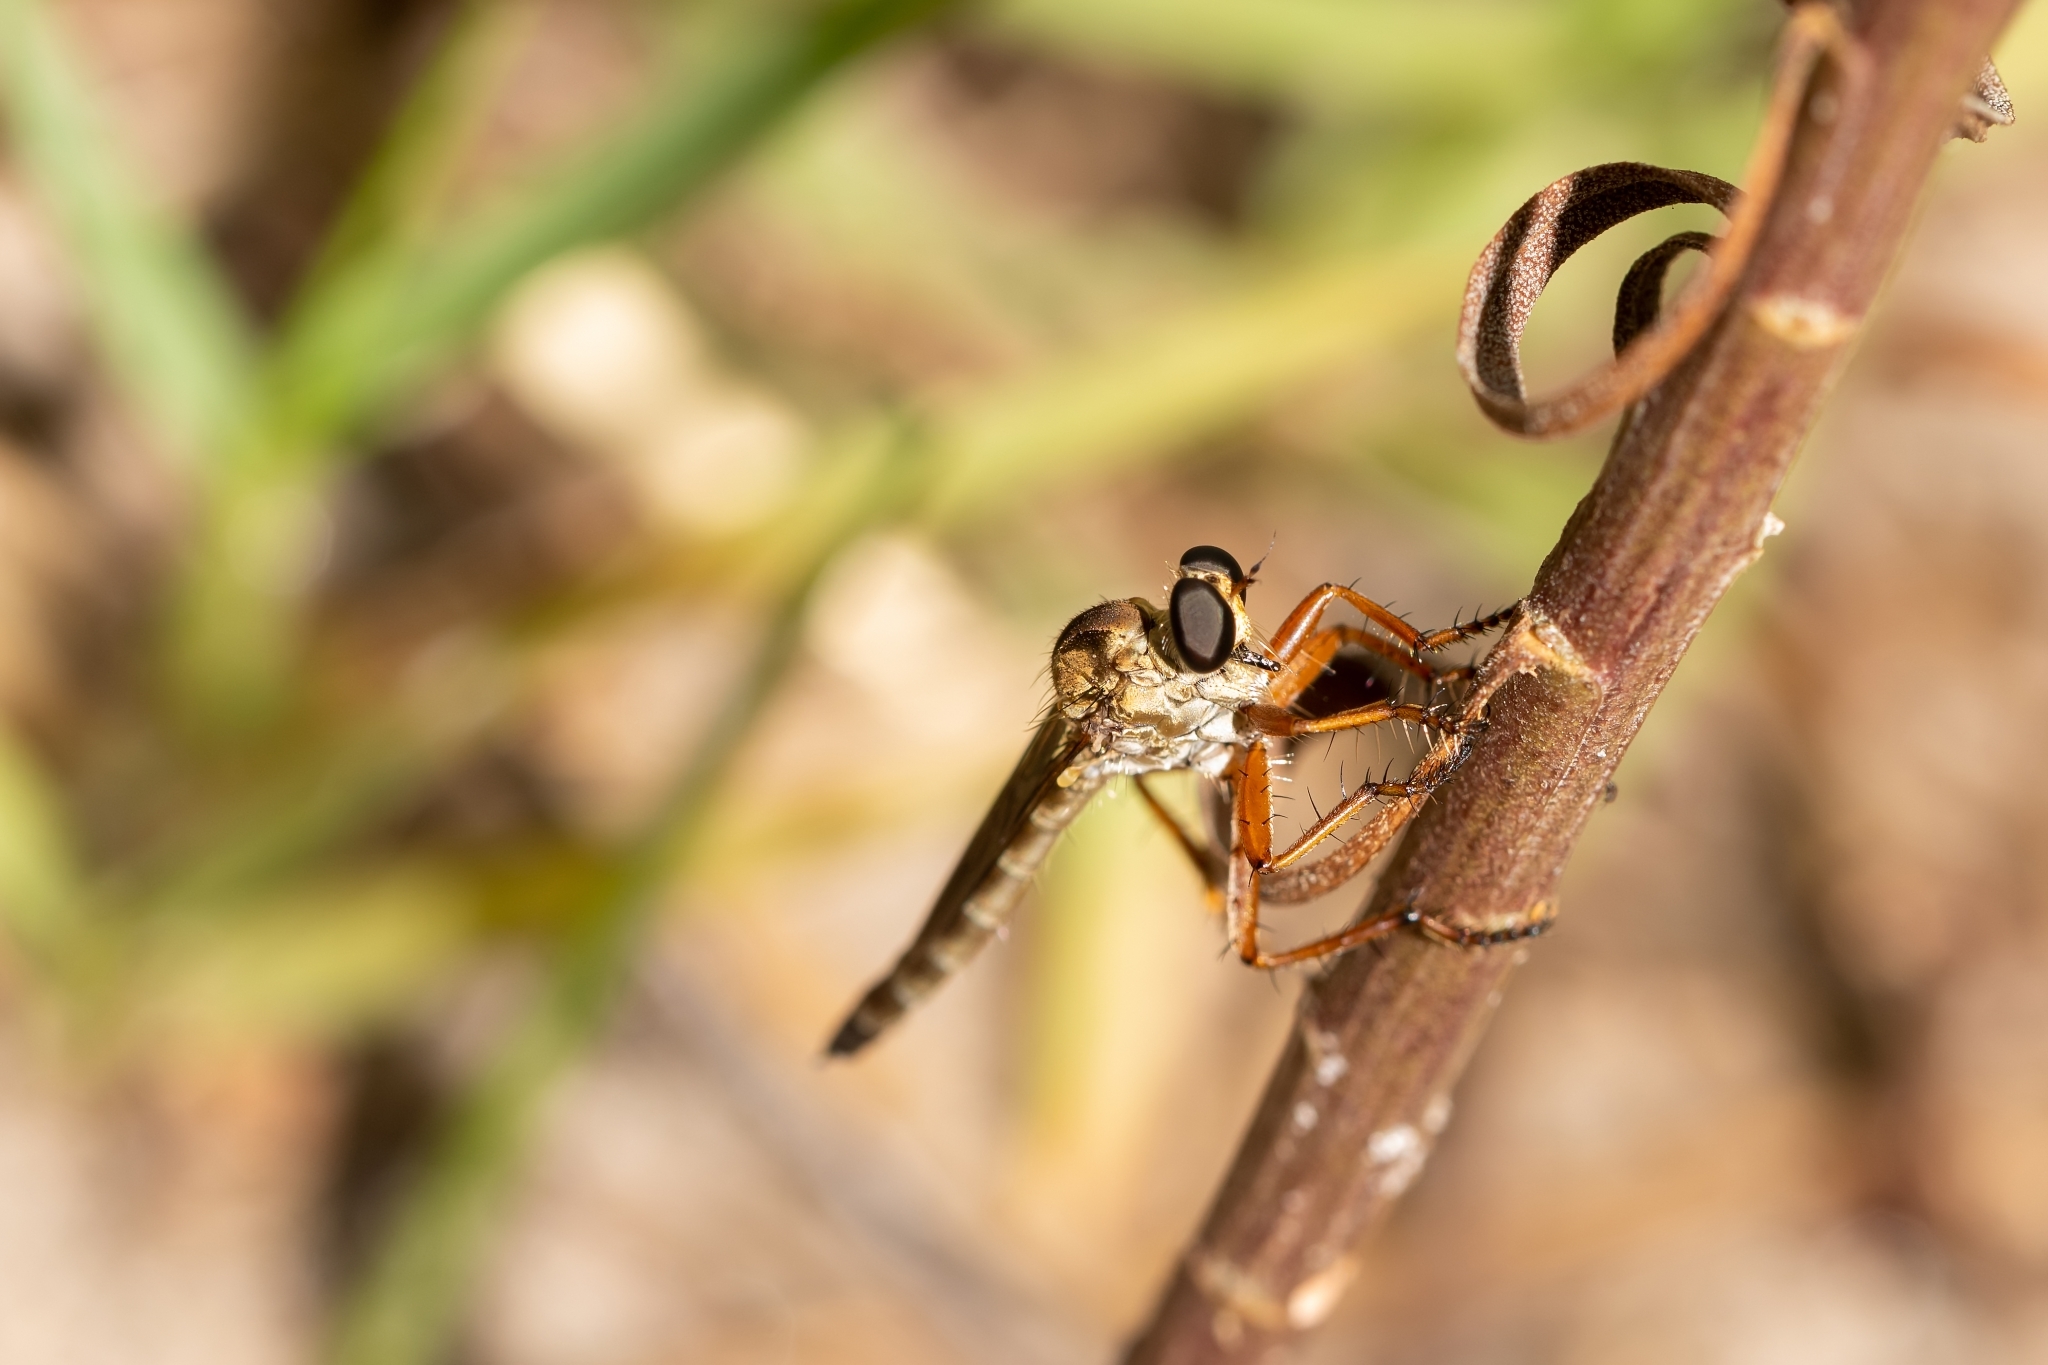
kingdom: Animalia
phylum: Arthropoda
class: Insecta
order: Diptera
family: Asilidae
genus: Polacantha
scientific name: Polacantha gracilis
